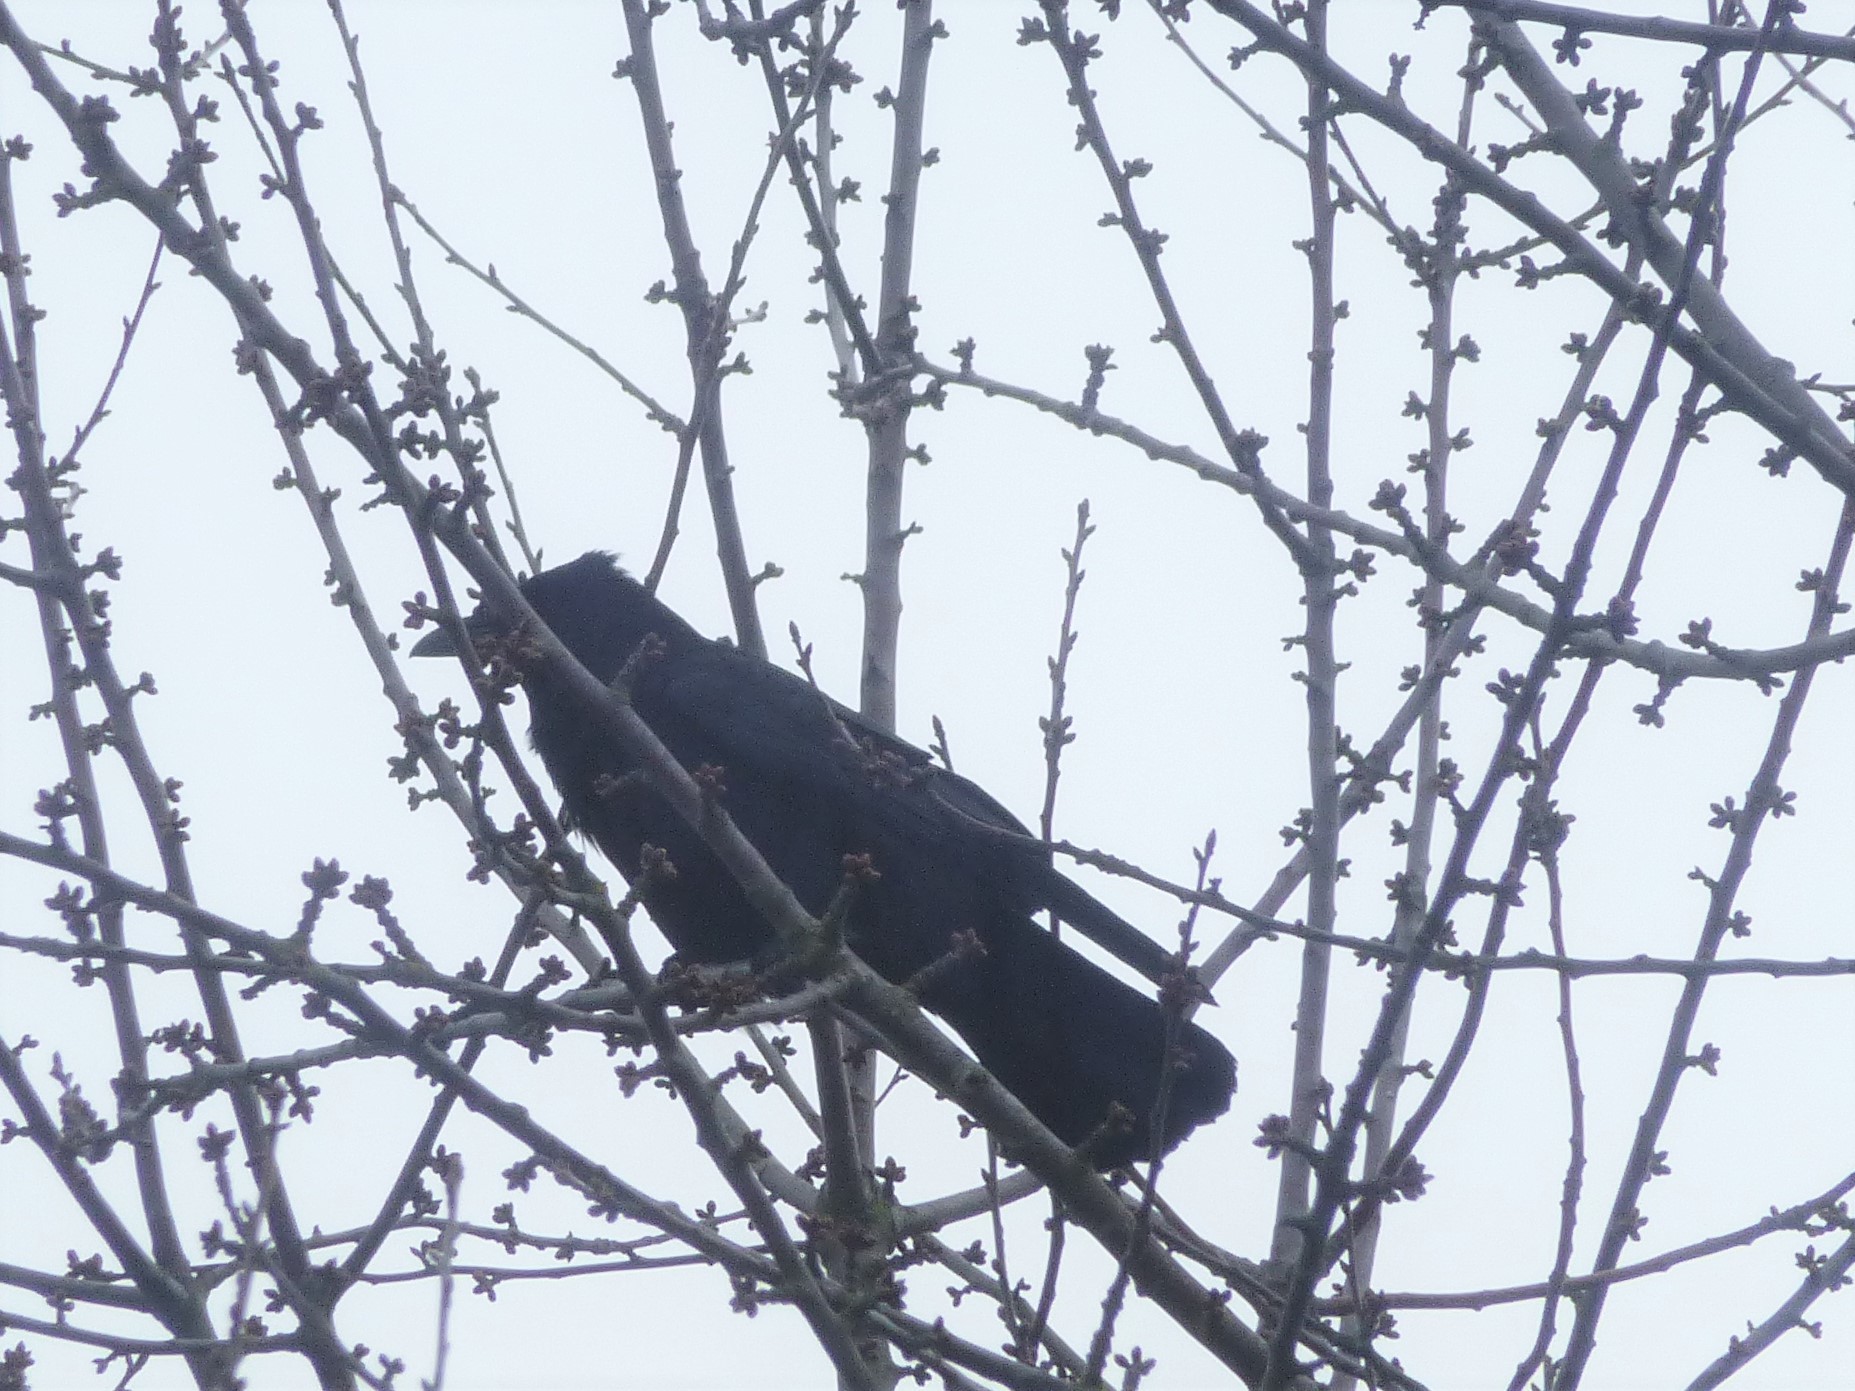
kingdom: Animalia
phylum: Chordata
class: Aves
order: Passeriformes
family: Corvidae
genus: Corvus
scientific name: Corvus corone
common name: Carrion crow
